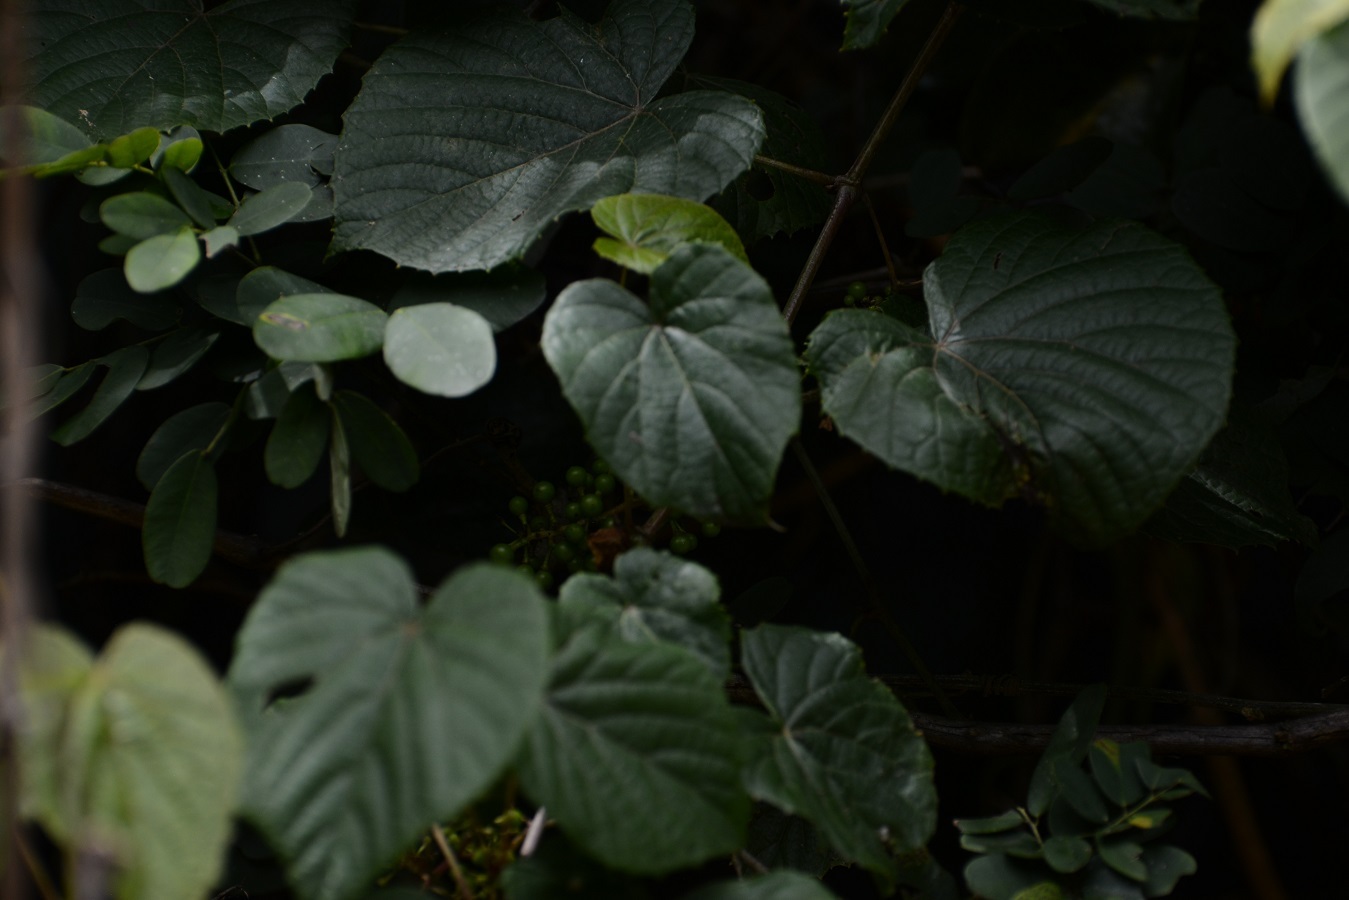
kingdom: Plantae
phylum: Tracheophyta
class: Magnoliopsida
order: Vitales
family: Vitaceae
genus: Vitis
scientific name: Vitis tiliifolia
